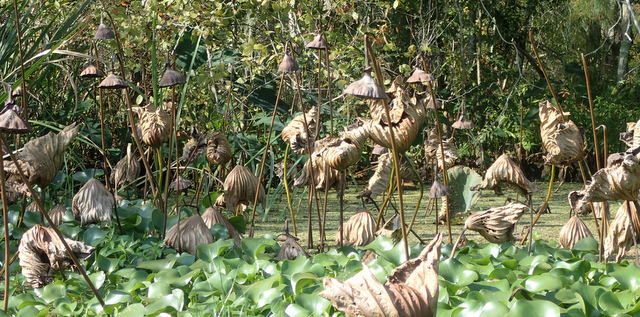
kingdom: Plantae
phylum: Tracheophyta
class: Magnoliopsida
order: Proteales
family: Nelumbonaceae
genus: Nelumbo
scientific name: Nelumbo lutea
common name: American lotus
